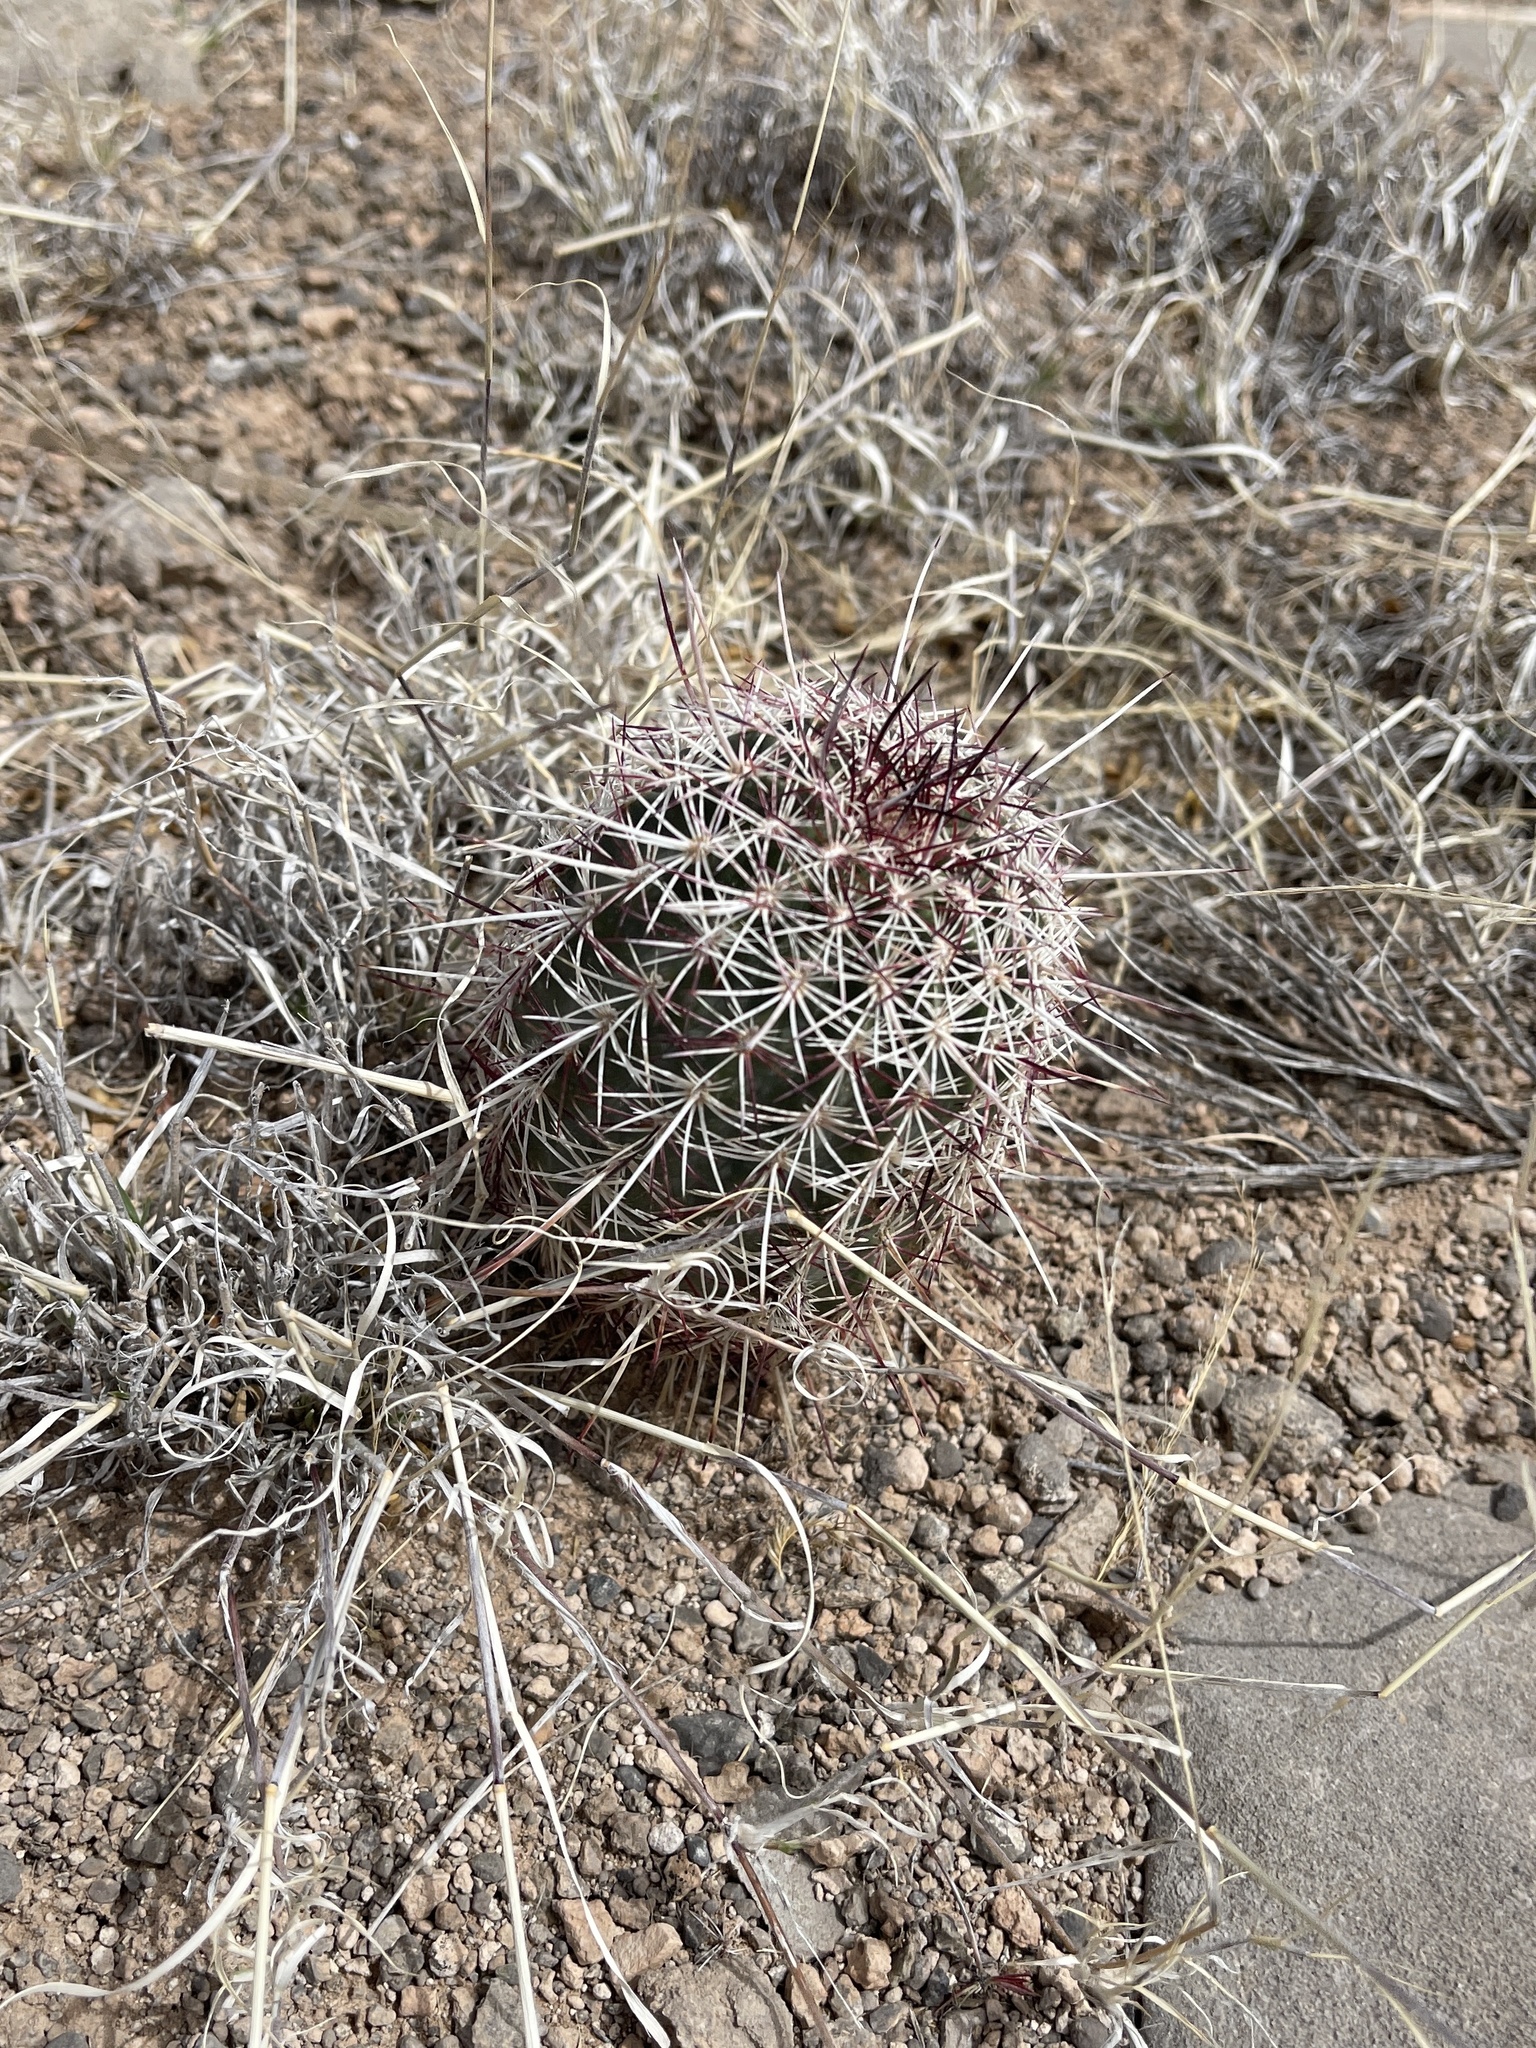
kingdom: Plantae
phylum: Tracheophyta
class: Magnoliopsida
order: Caryophyllales
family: Cactaceae
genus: Echinocereus
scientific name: Echinocereus viridiflorus
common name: Nylon hedgehog cactus
